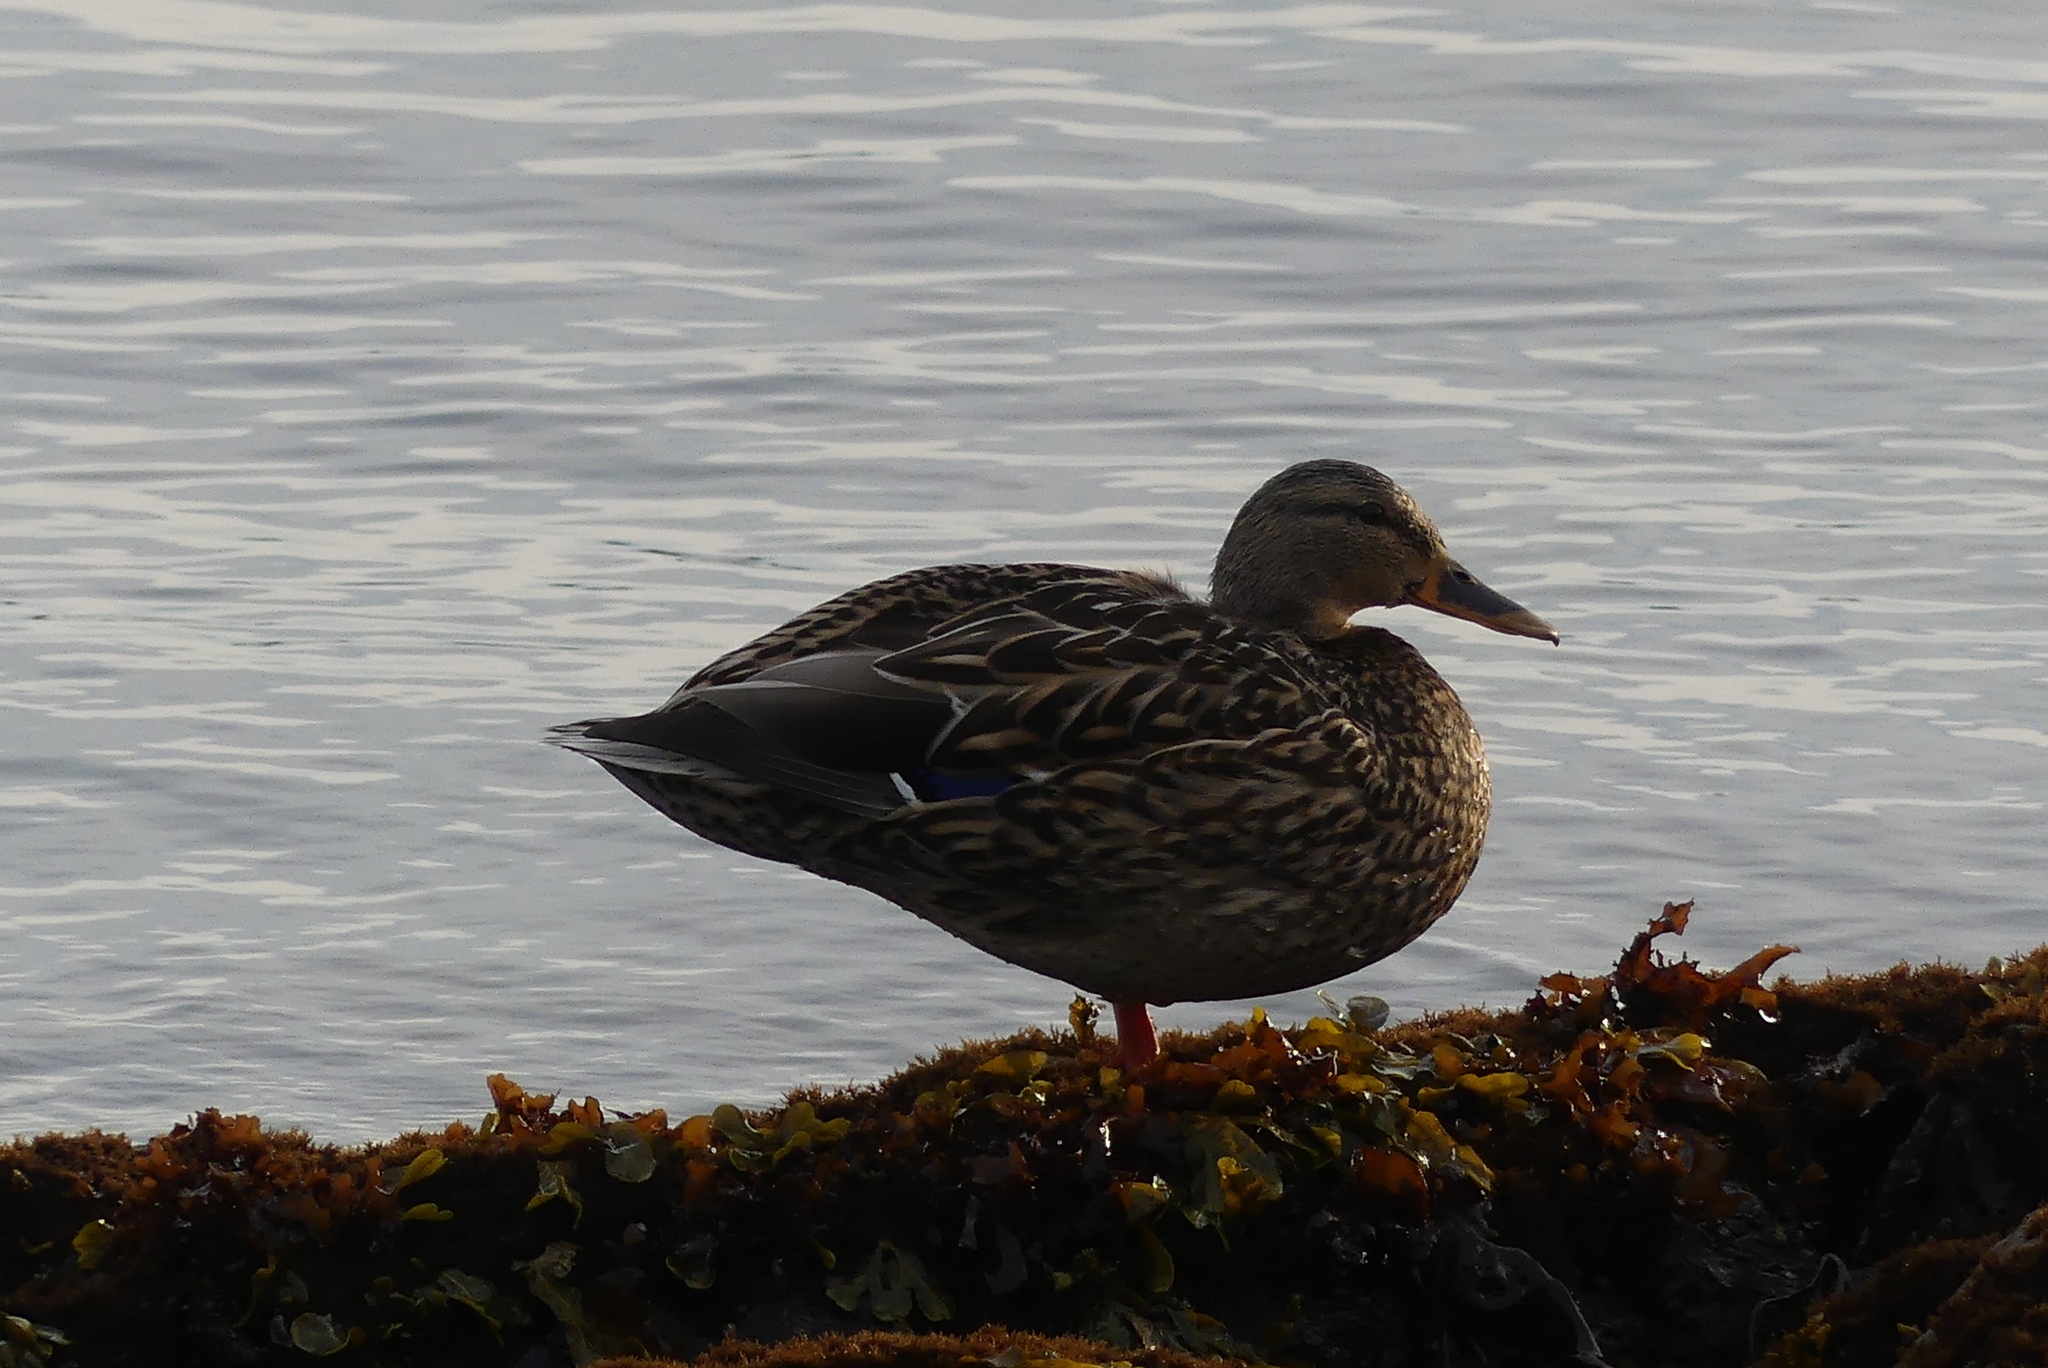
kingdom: Animalia
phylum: Chordata
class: Aves
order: Anseriformes
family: Anatidae
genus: Anas
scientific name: Anas platyrhynchos
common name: Mallard
